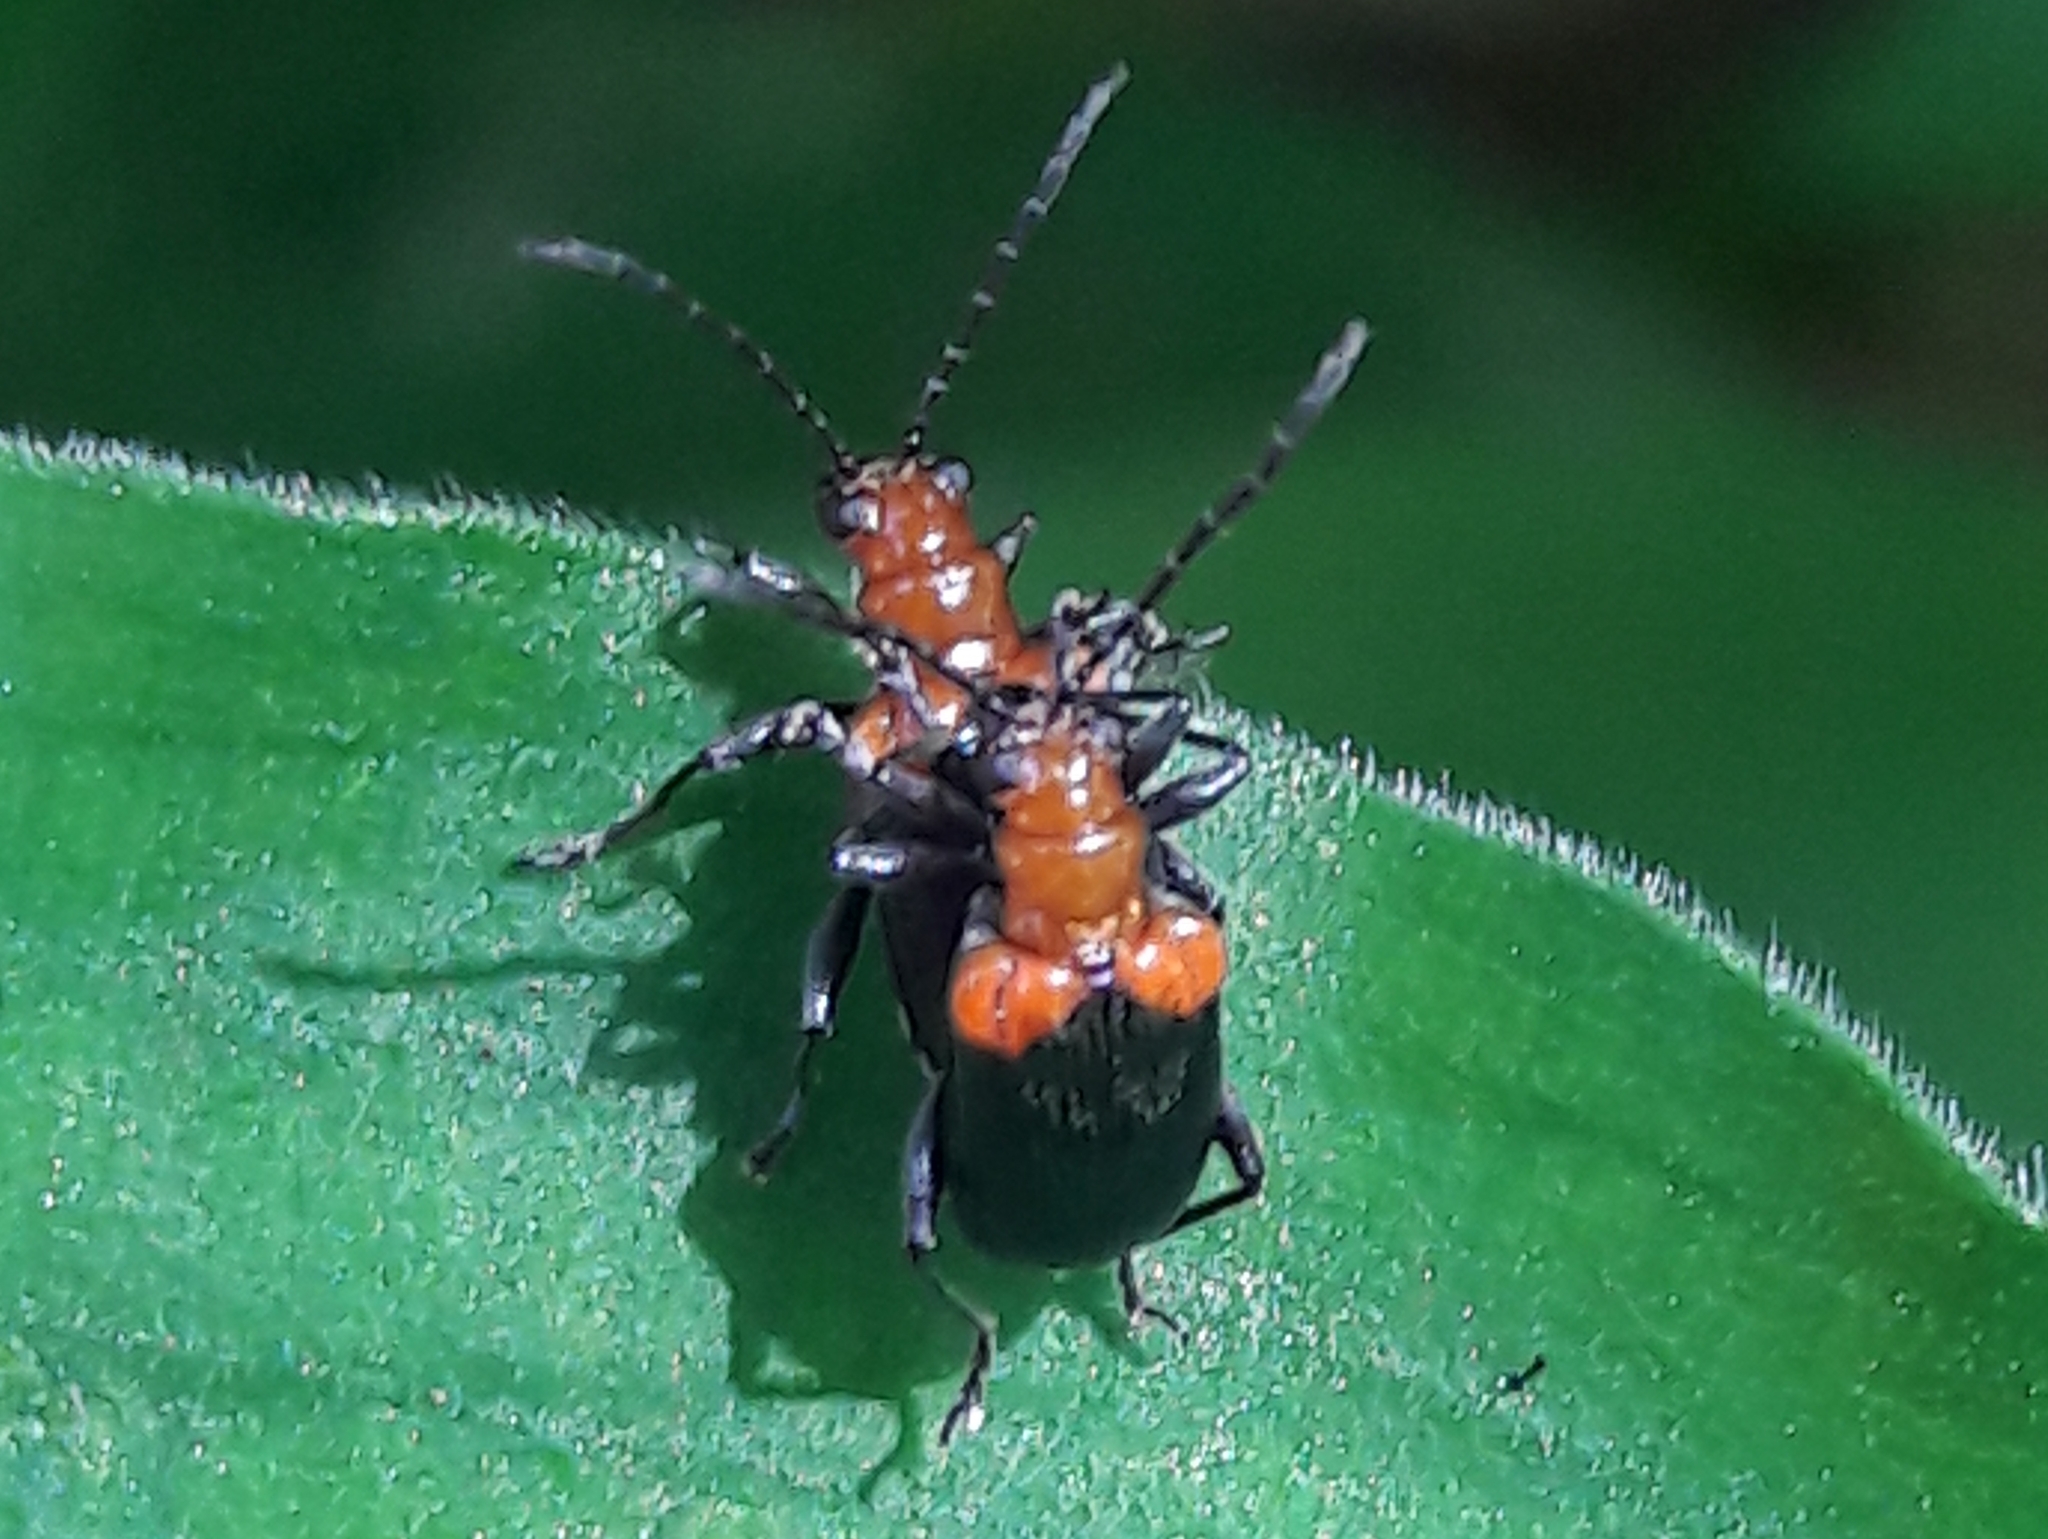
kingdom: Animalia
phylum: Arthropoda
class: Insecta
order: Coleoptera
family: Chrysomelidae
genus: Neolema
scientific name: Neolema
